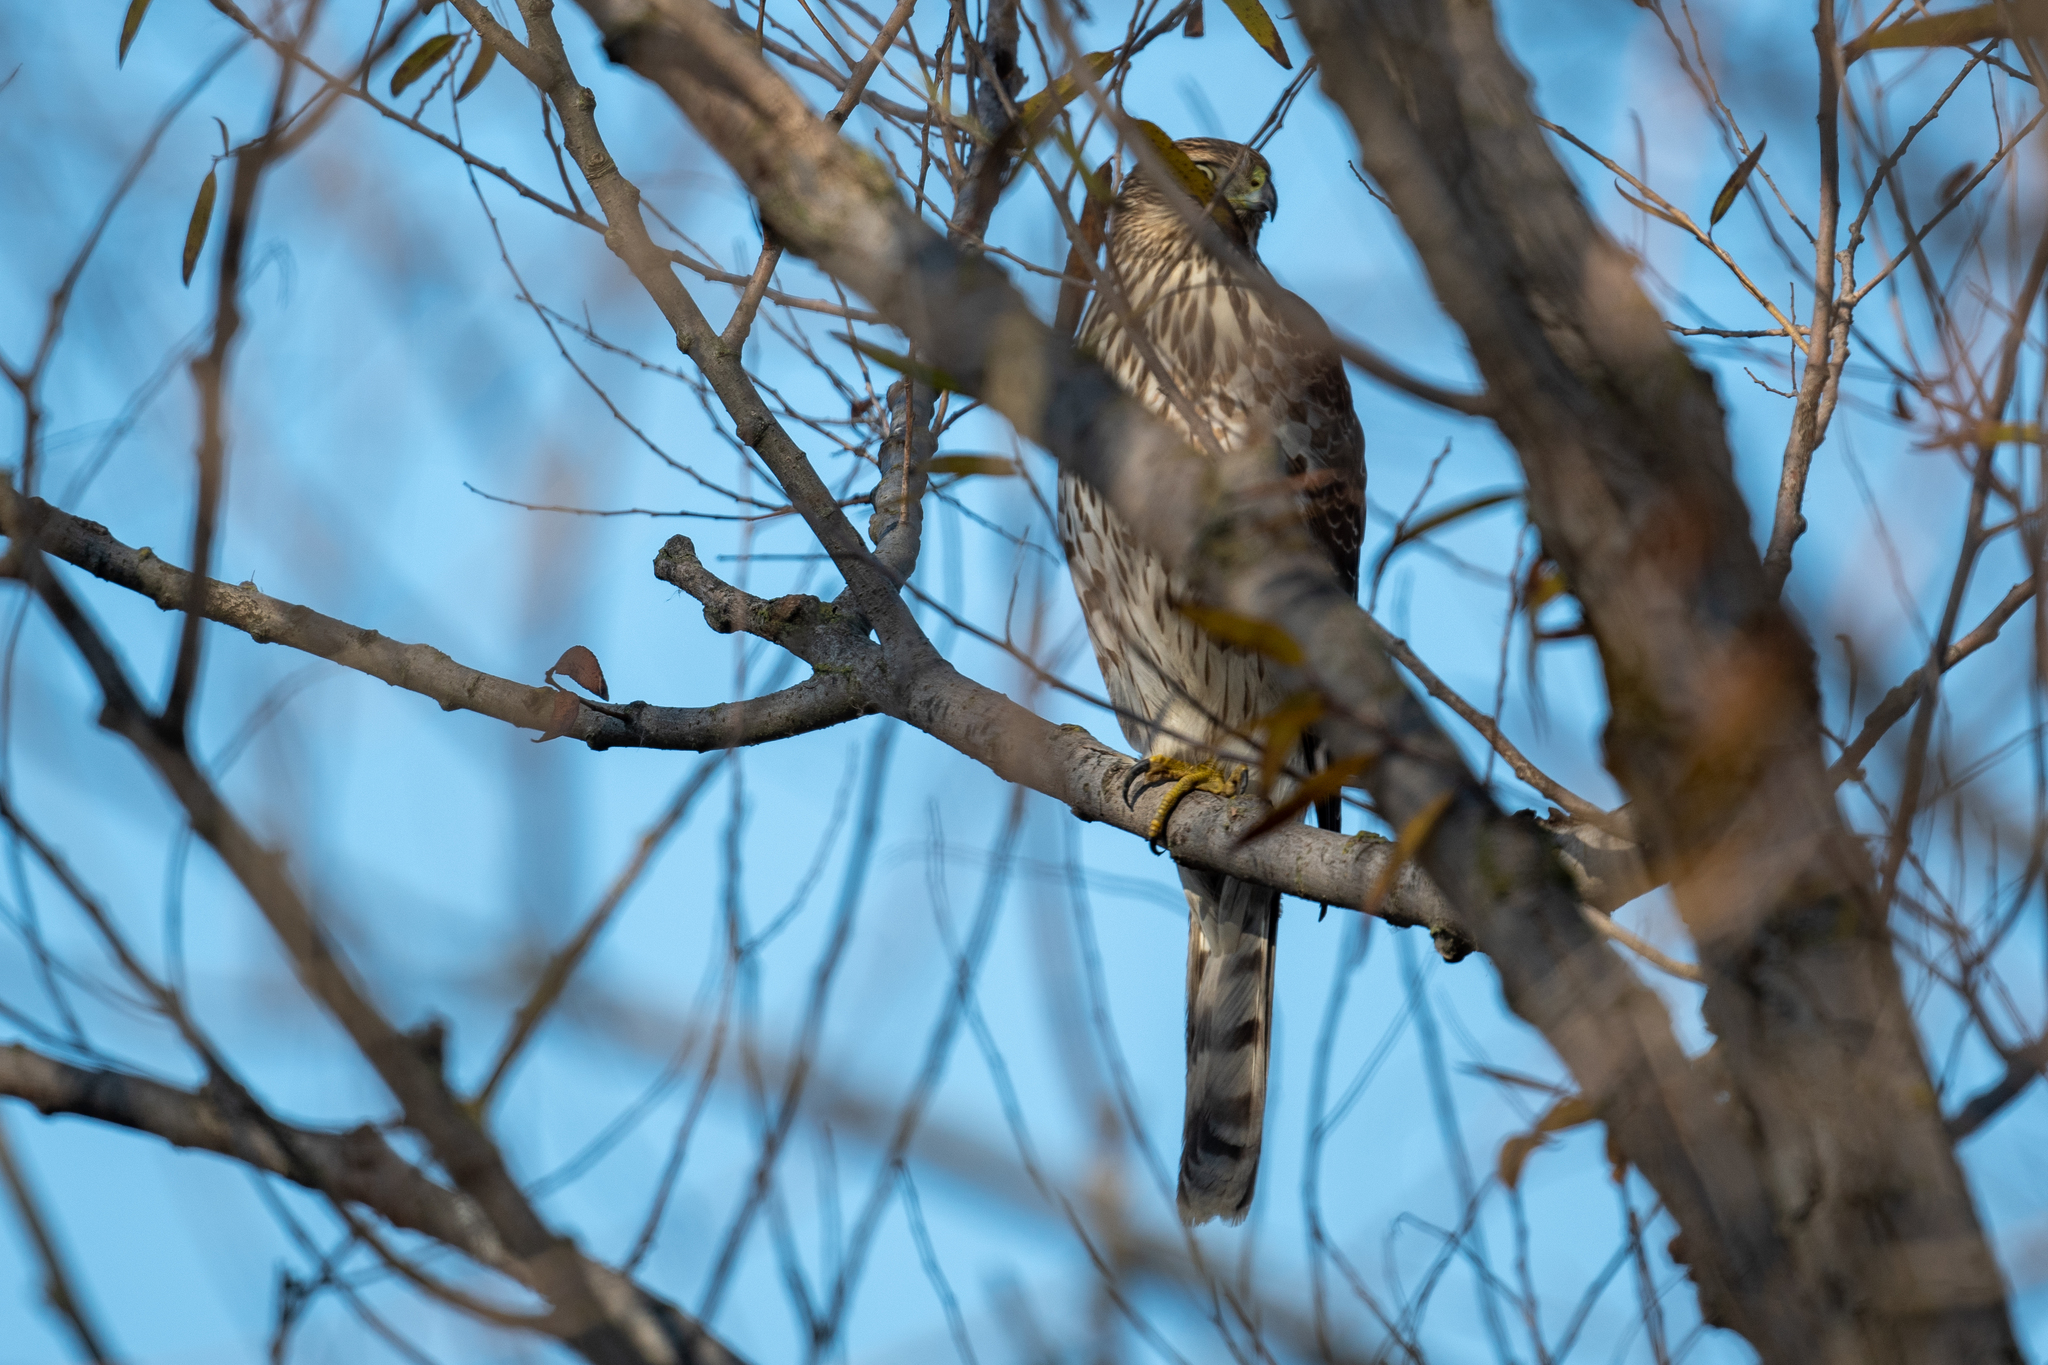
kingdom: Animalia
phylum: Chordata
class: Aves
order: Accipitriformes
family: Accipitridae
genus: Accipiter
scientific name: Accipiter cooperii
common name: Cooper's hawk
